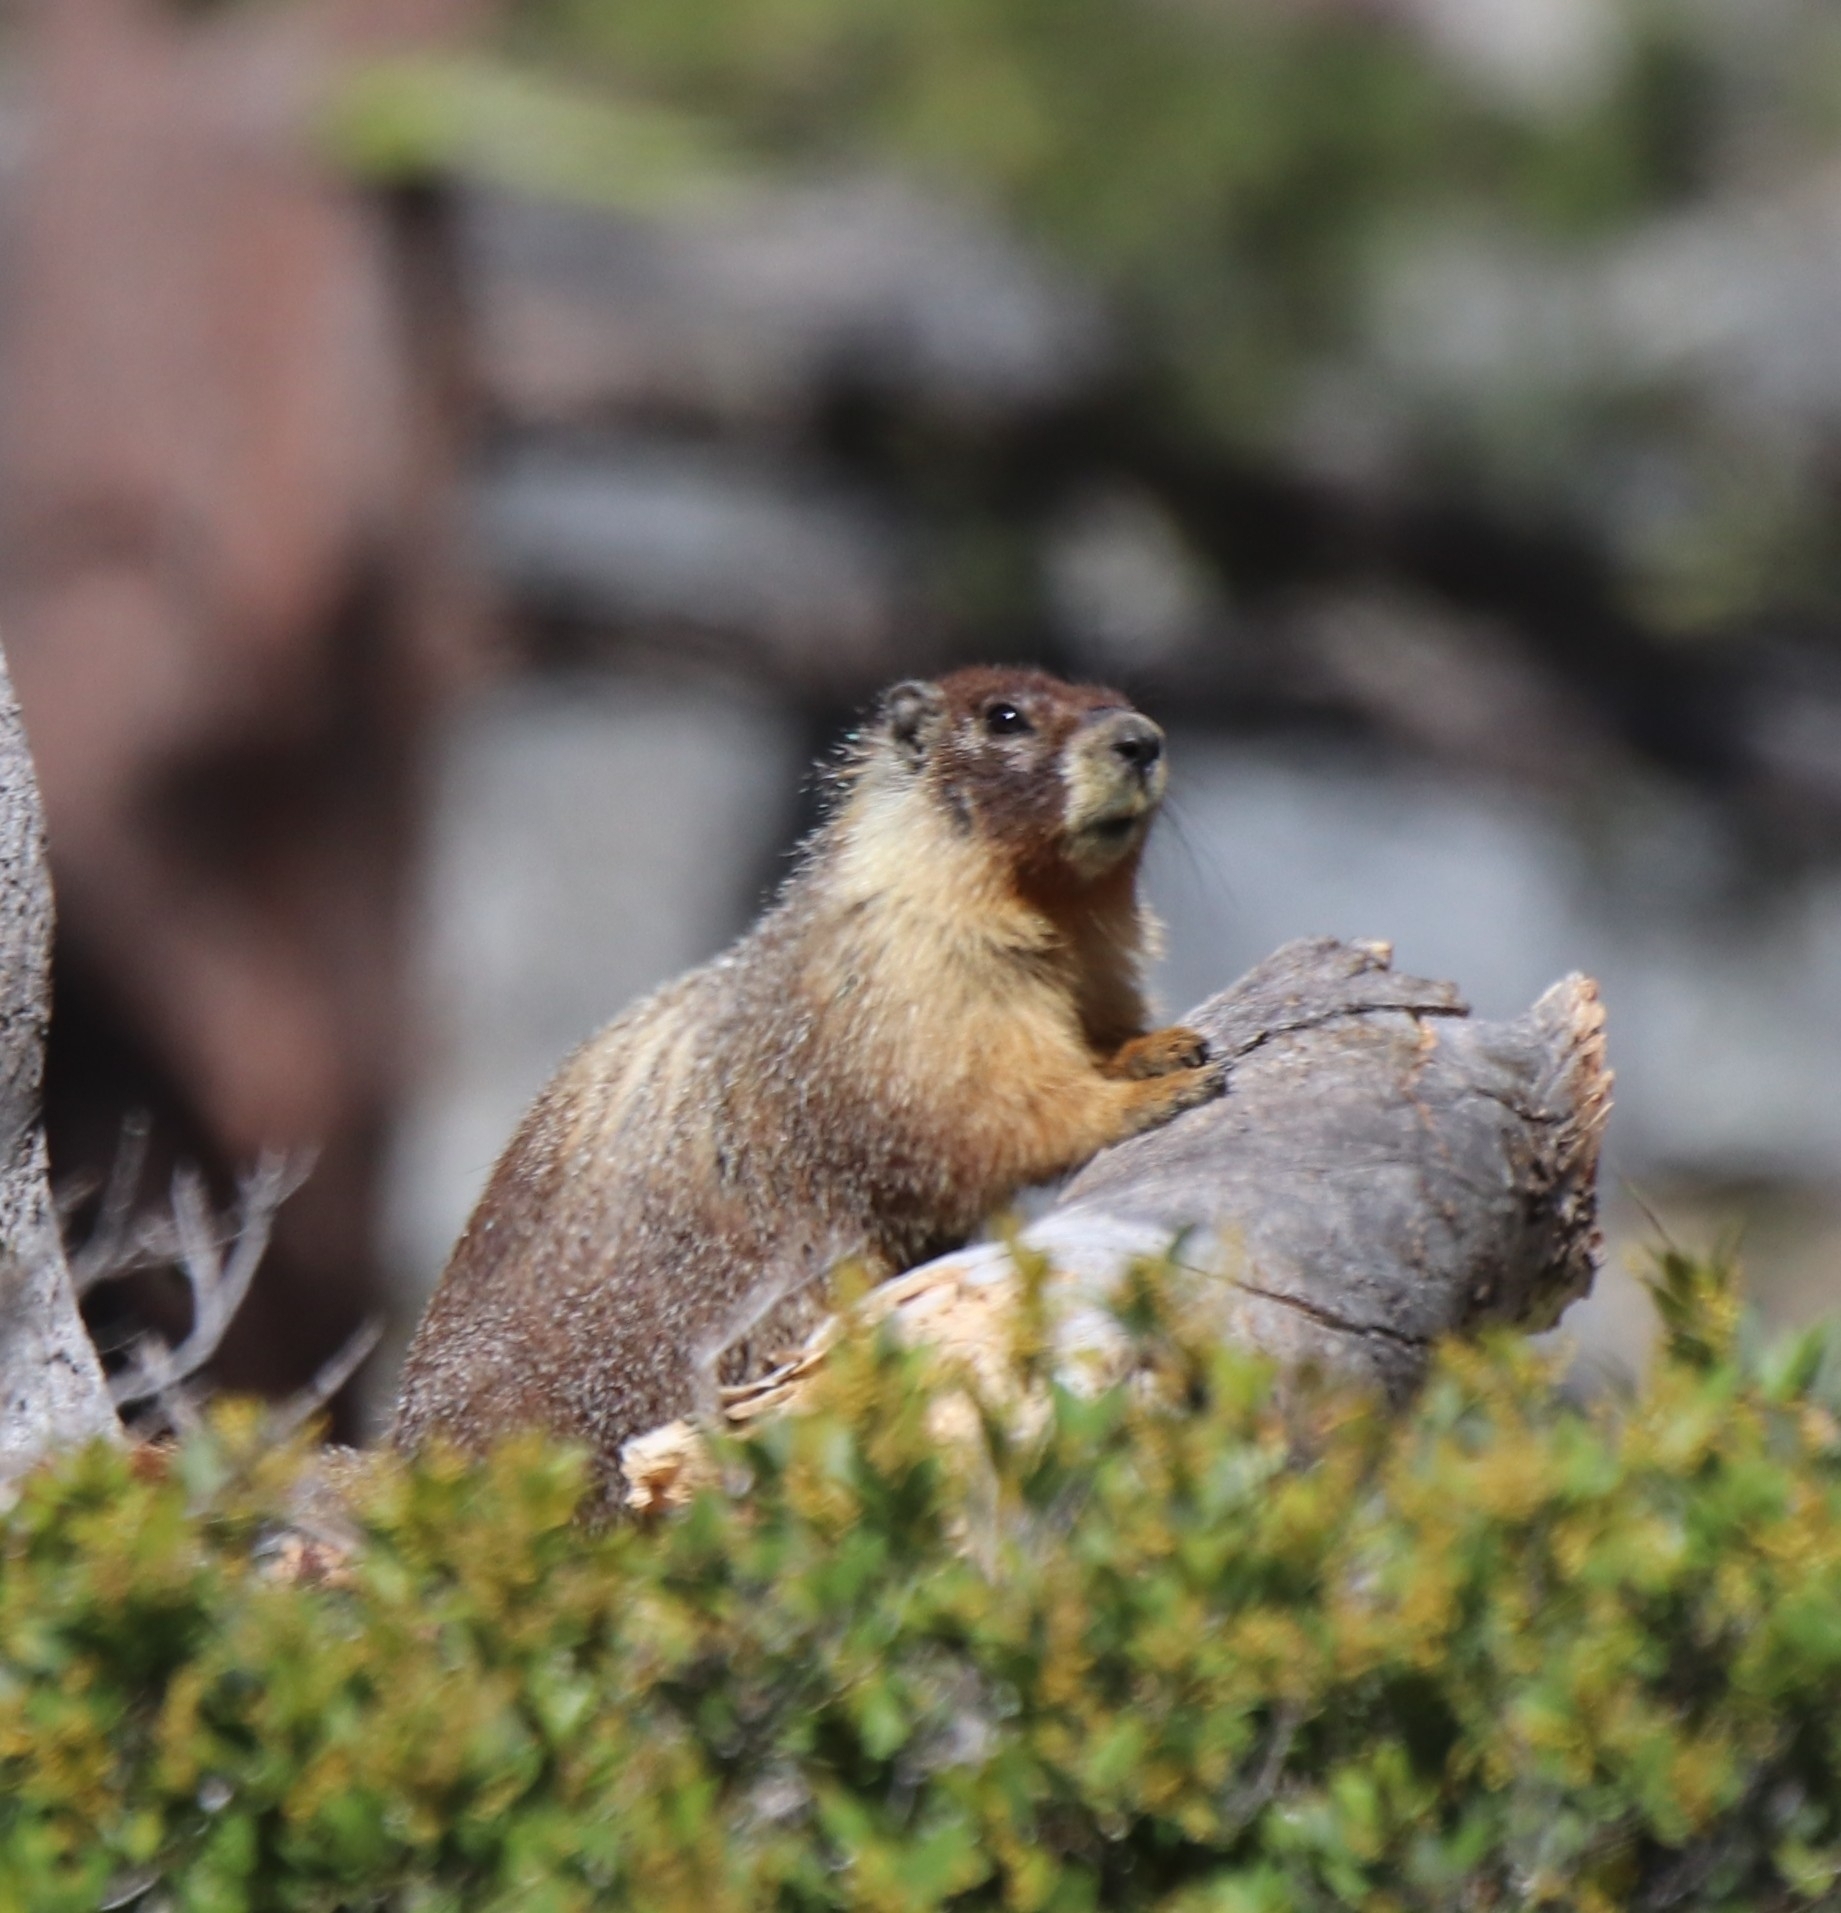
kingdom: Animalia
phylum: Chordata
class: Mammalia
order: Rodentia
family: Sciuridae
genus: Marmota
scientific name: Marmota flaviventris
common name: Yellow-bellied marmot
